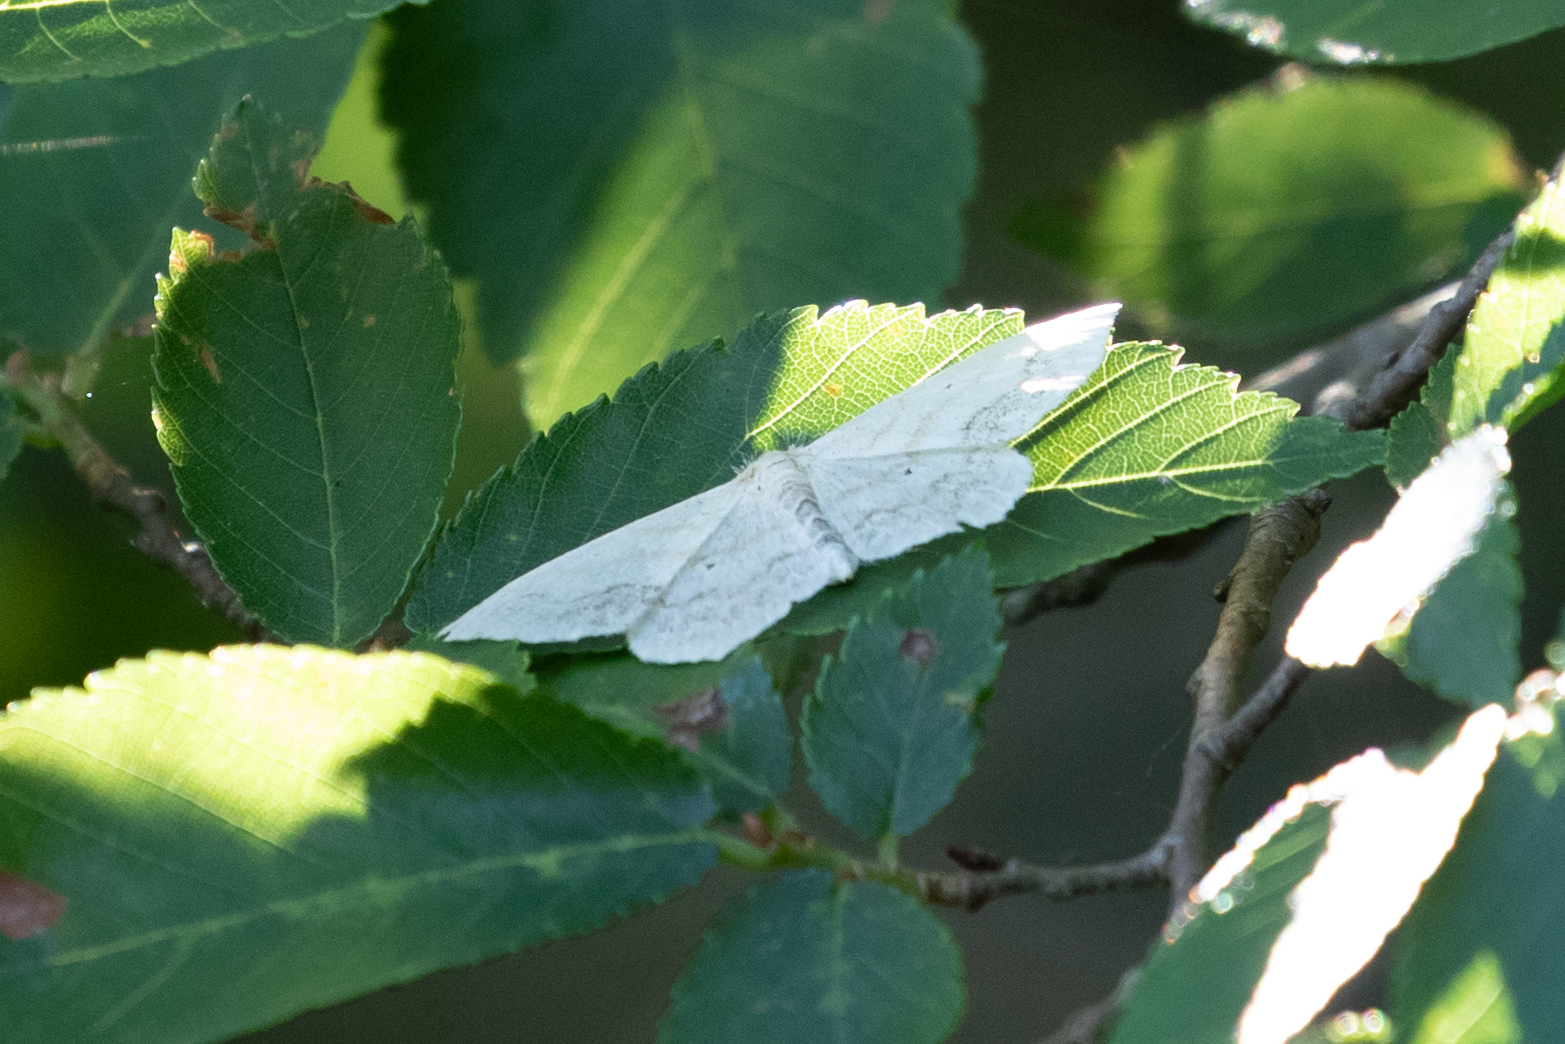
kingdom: Animalia
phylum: Arthropoda
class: Insecta
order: Lepidoptera
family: Geometridae
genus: Scopula
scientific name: Scopula limboundata
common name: Large lace border
